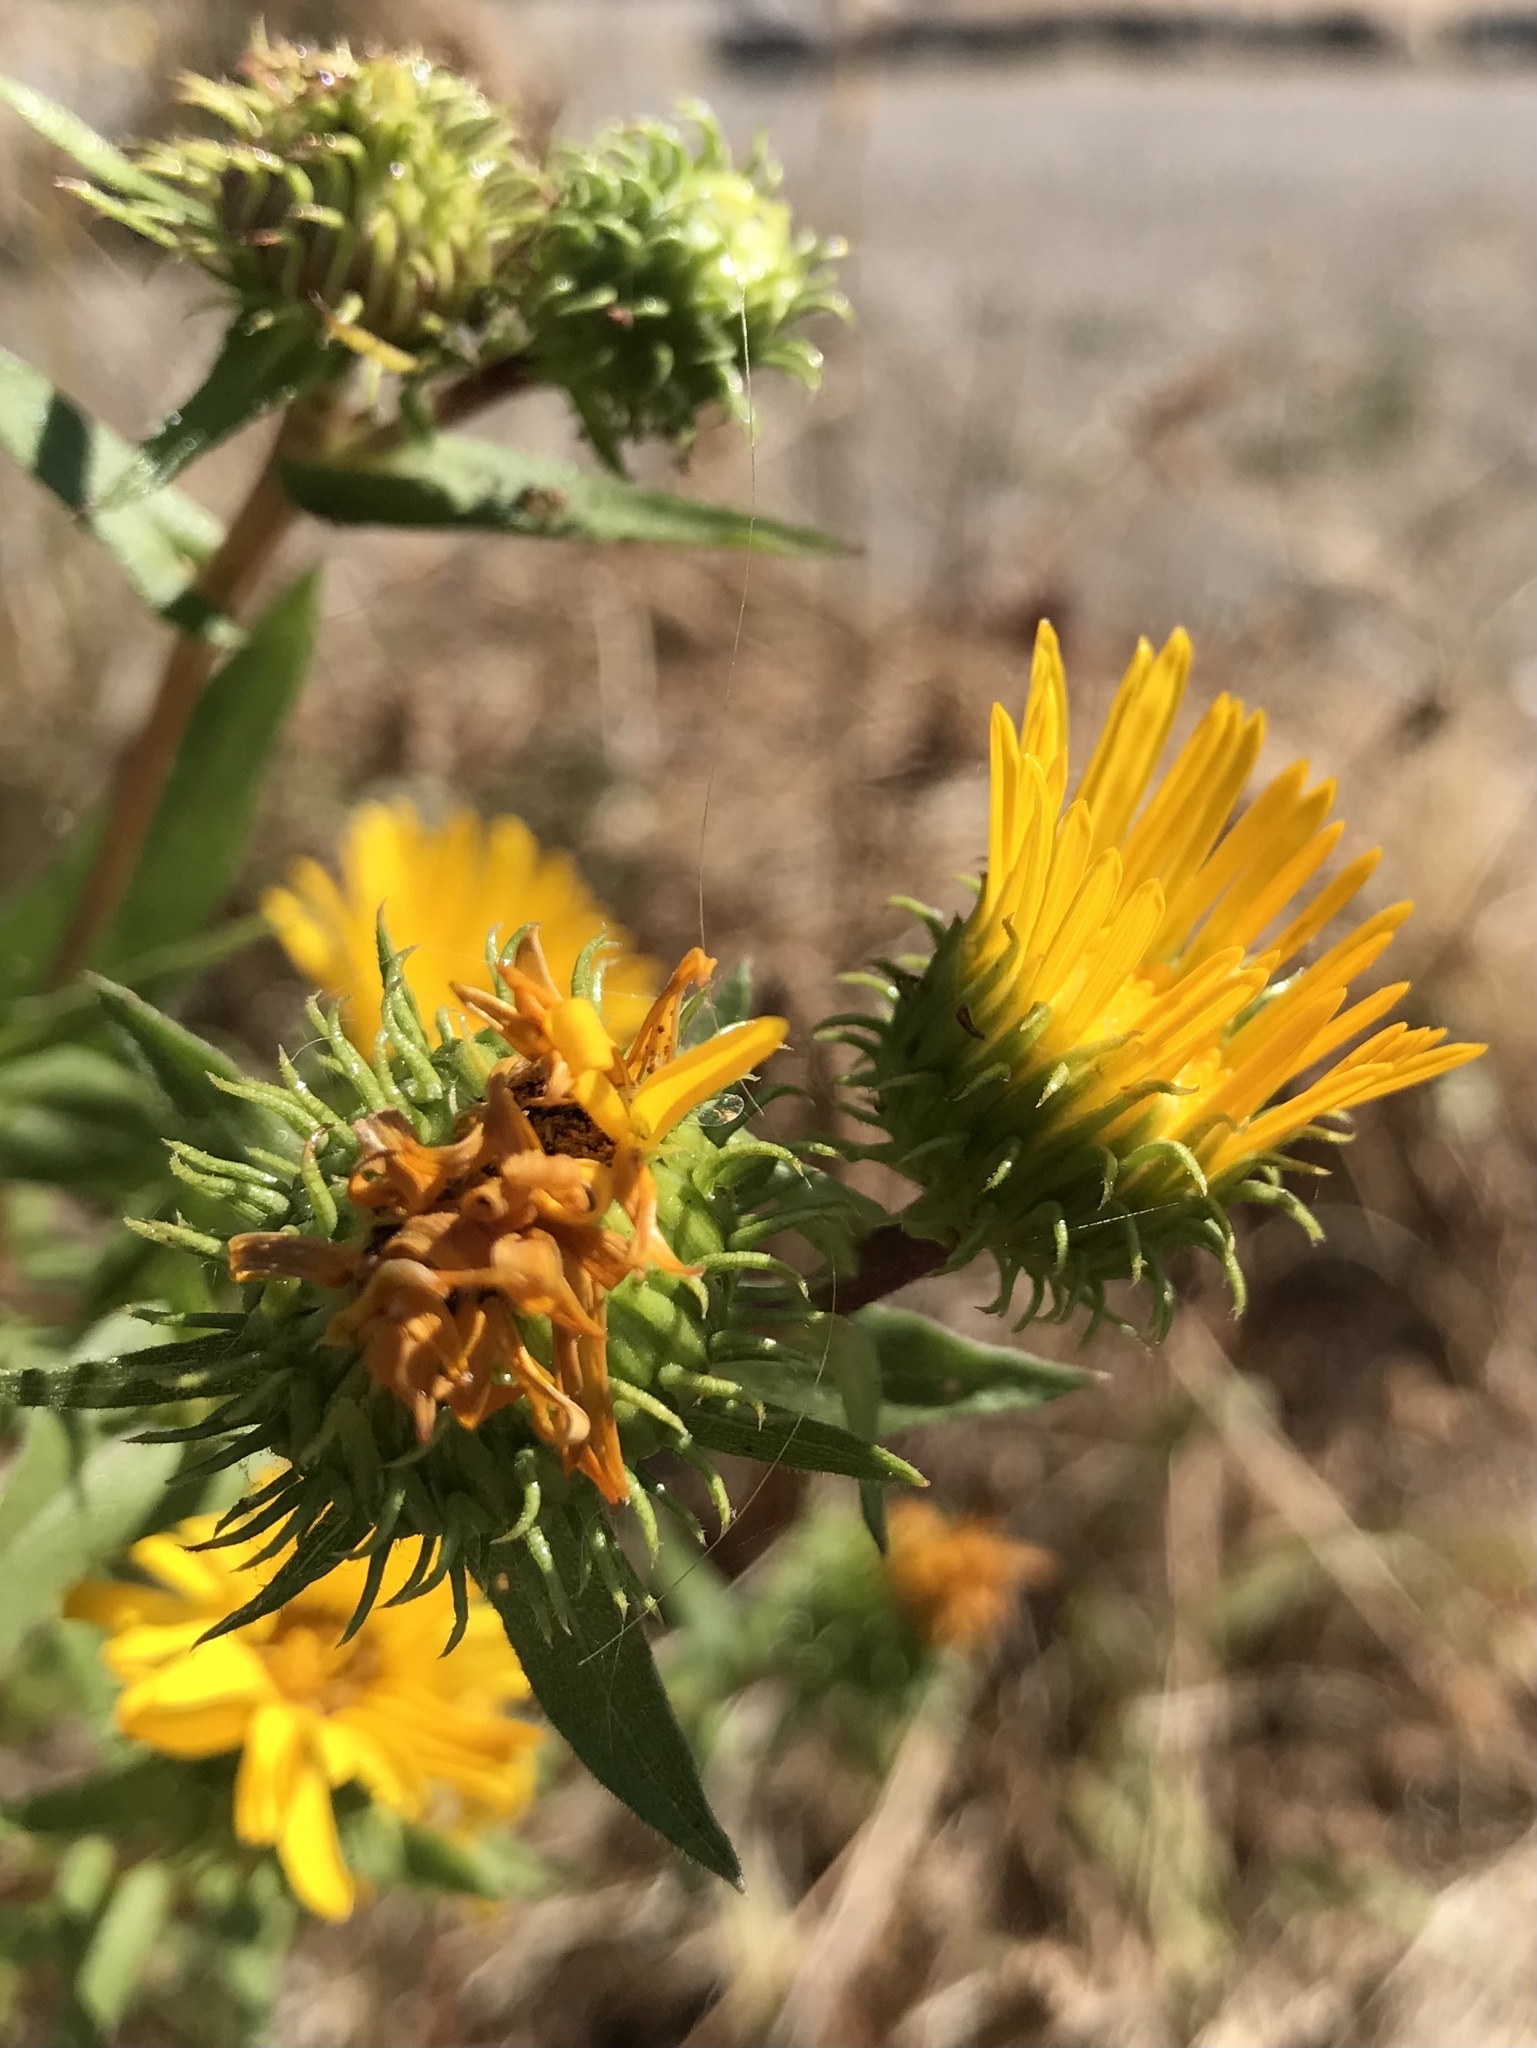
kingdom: Plantae
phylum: Tracheophyta
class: Magnoliopsida
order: Asterales
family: Asteraceae
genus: Grindelia
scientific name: Grindelia integrifolia
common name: Puget sound gumweed
